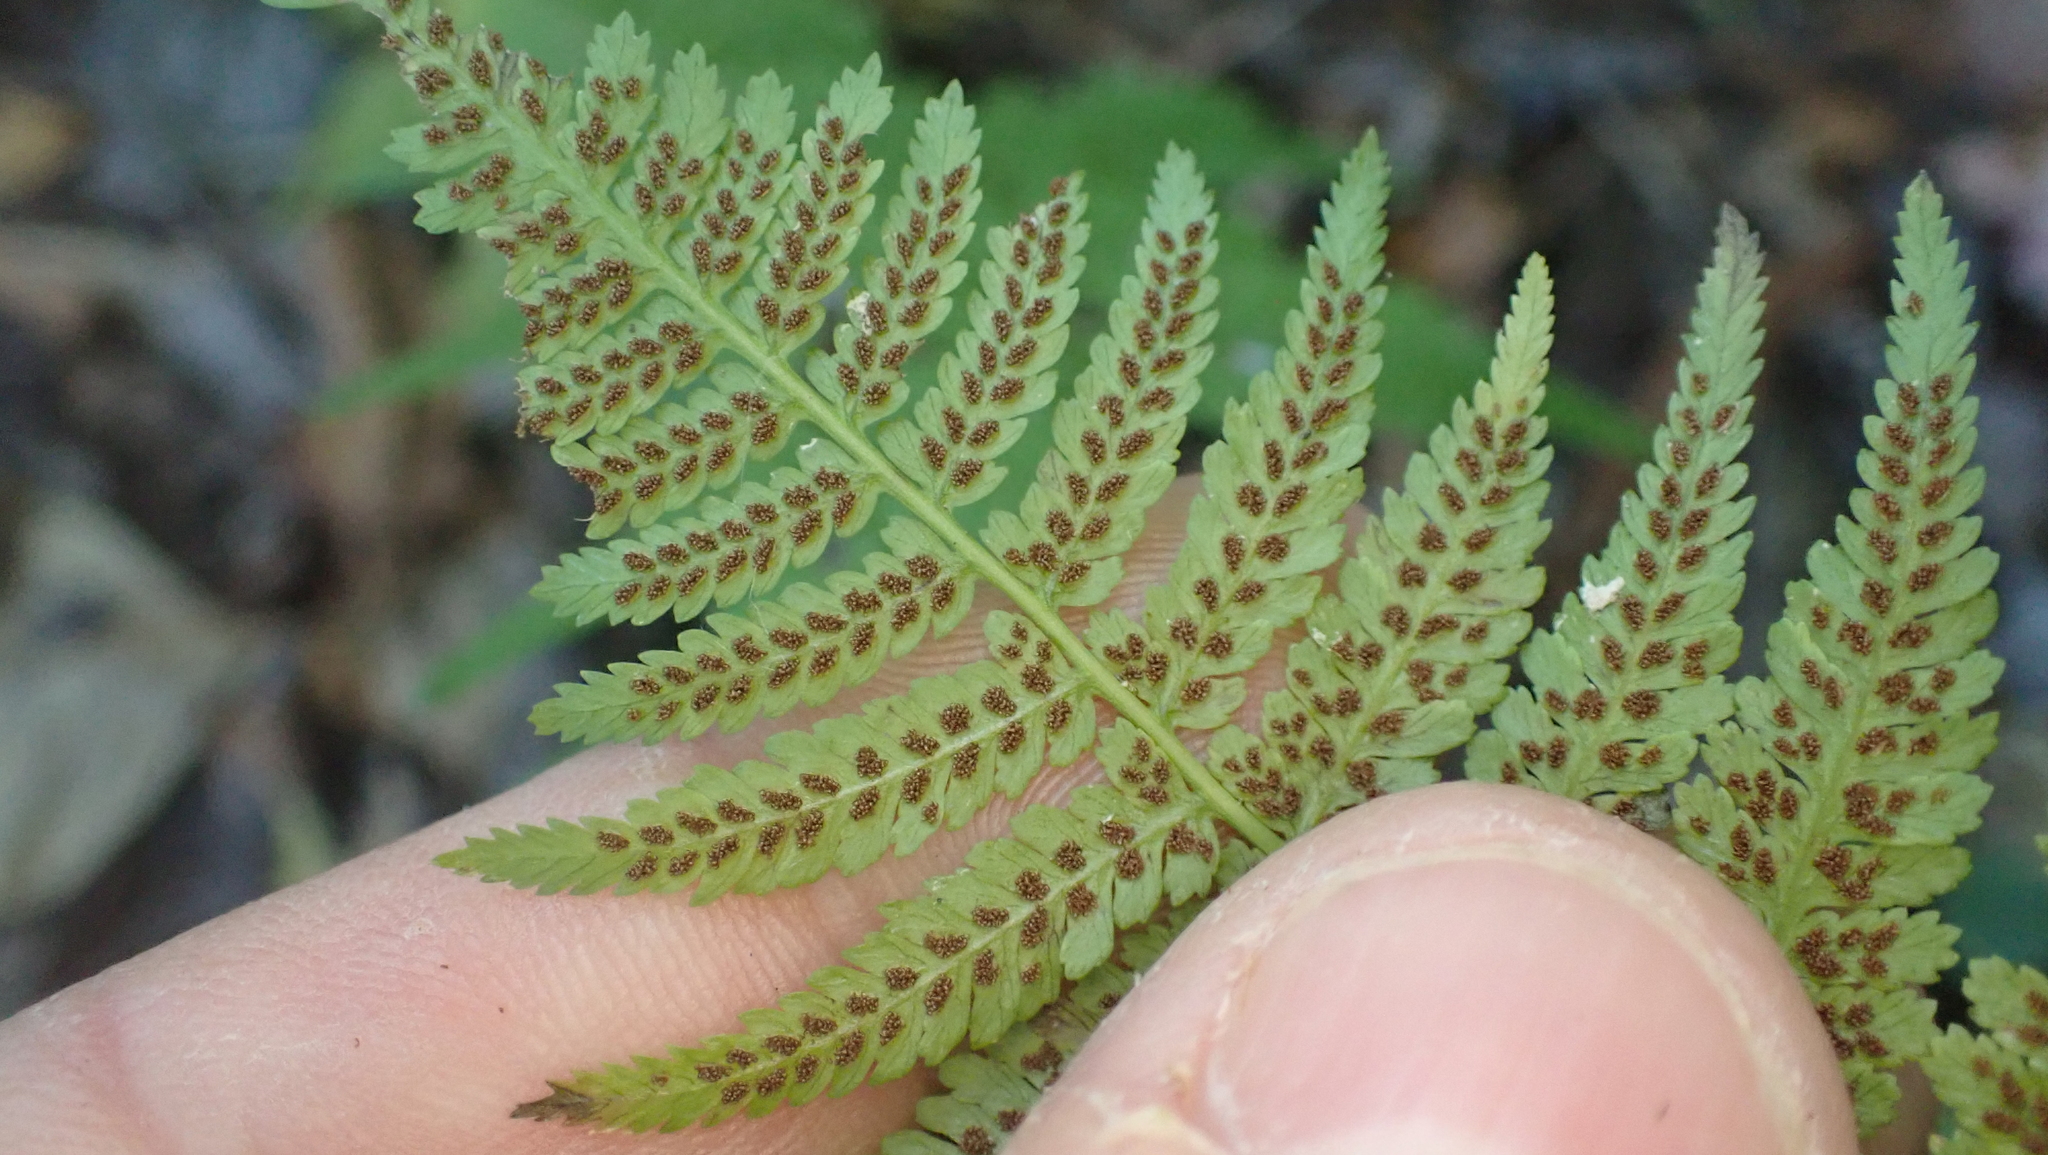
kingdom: Plantae
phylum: Tracheophyta
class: Polypodiopsida
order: Polypodiales
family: Athyriaceae
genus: Athyrium
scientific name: Athyrium asplenioides
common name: Southern lady fern
